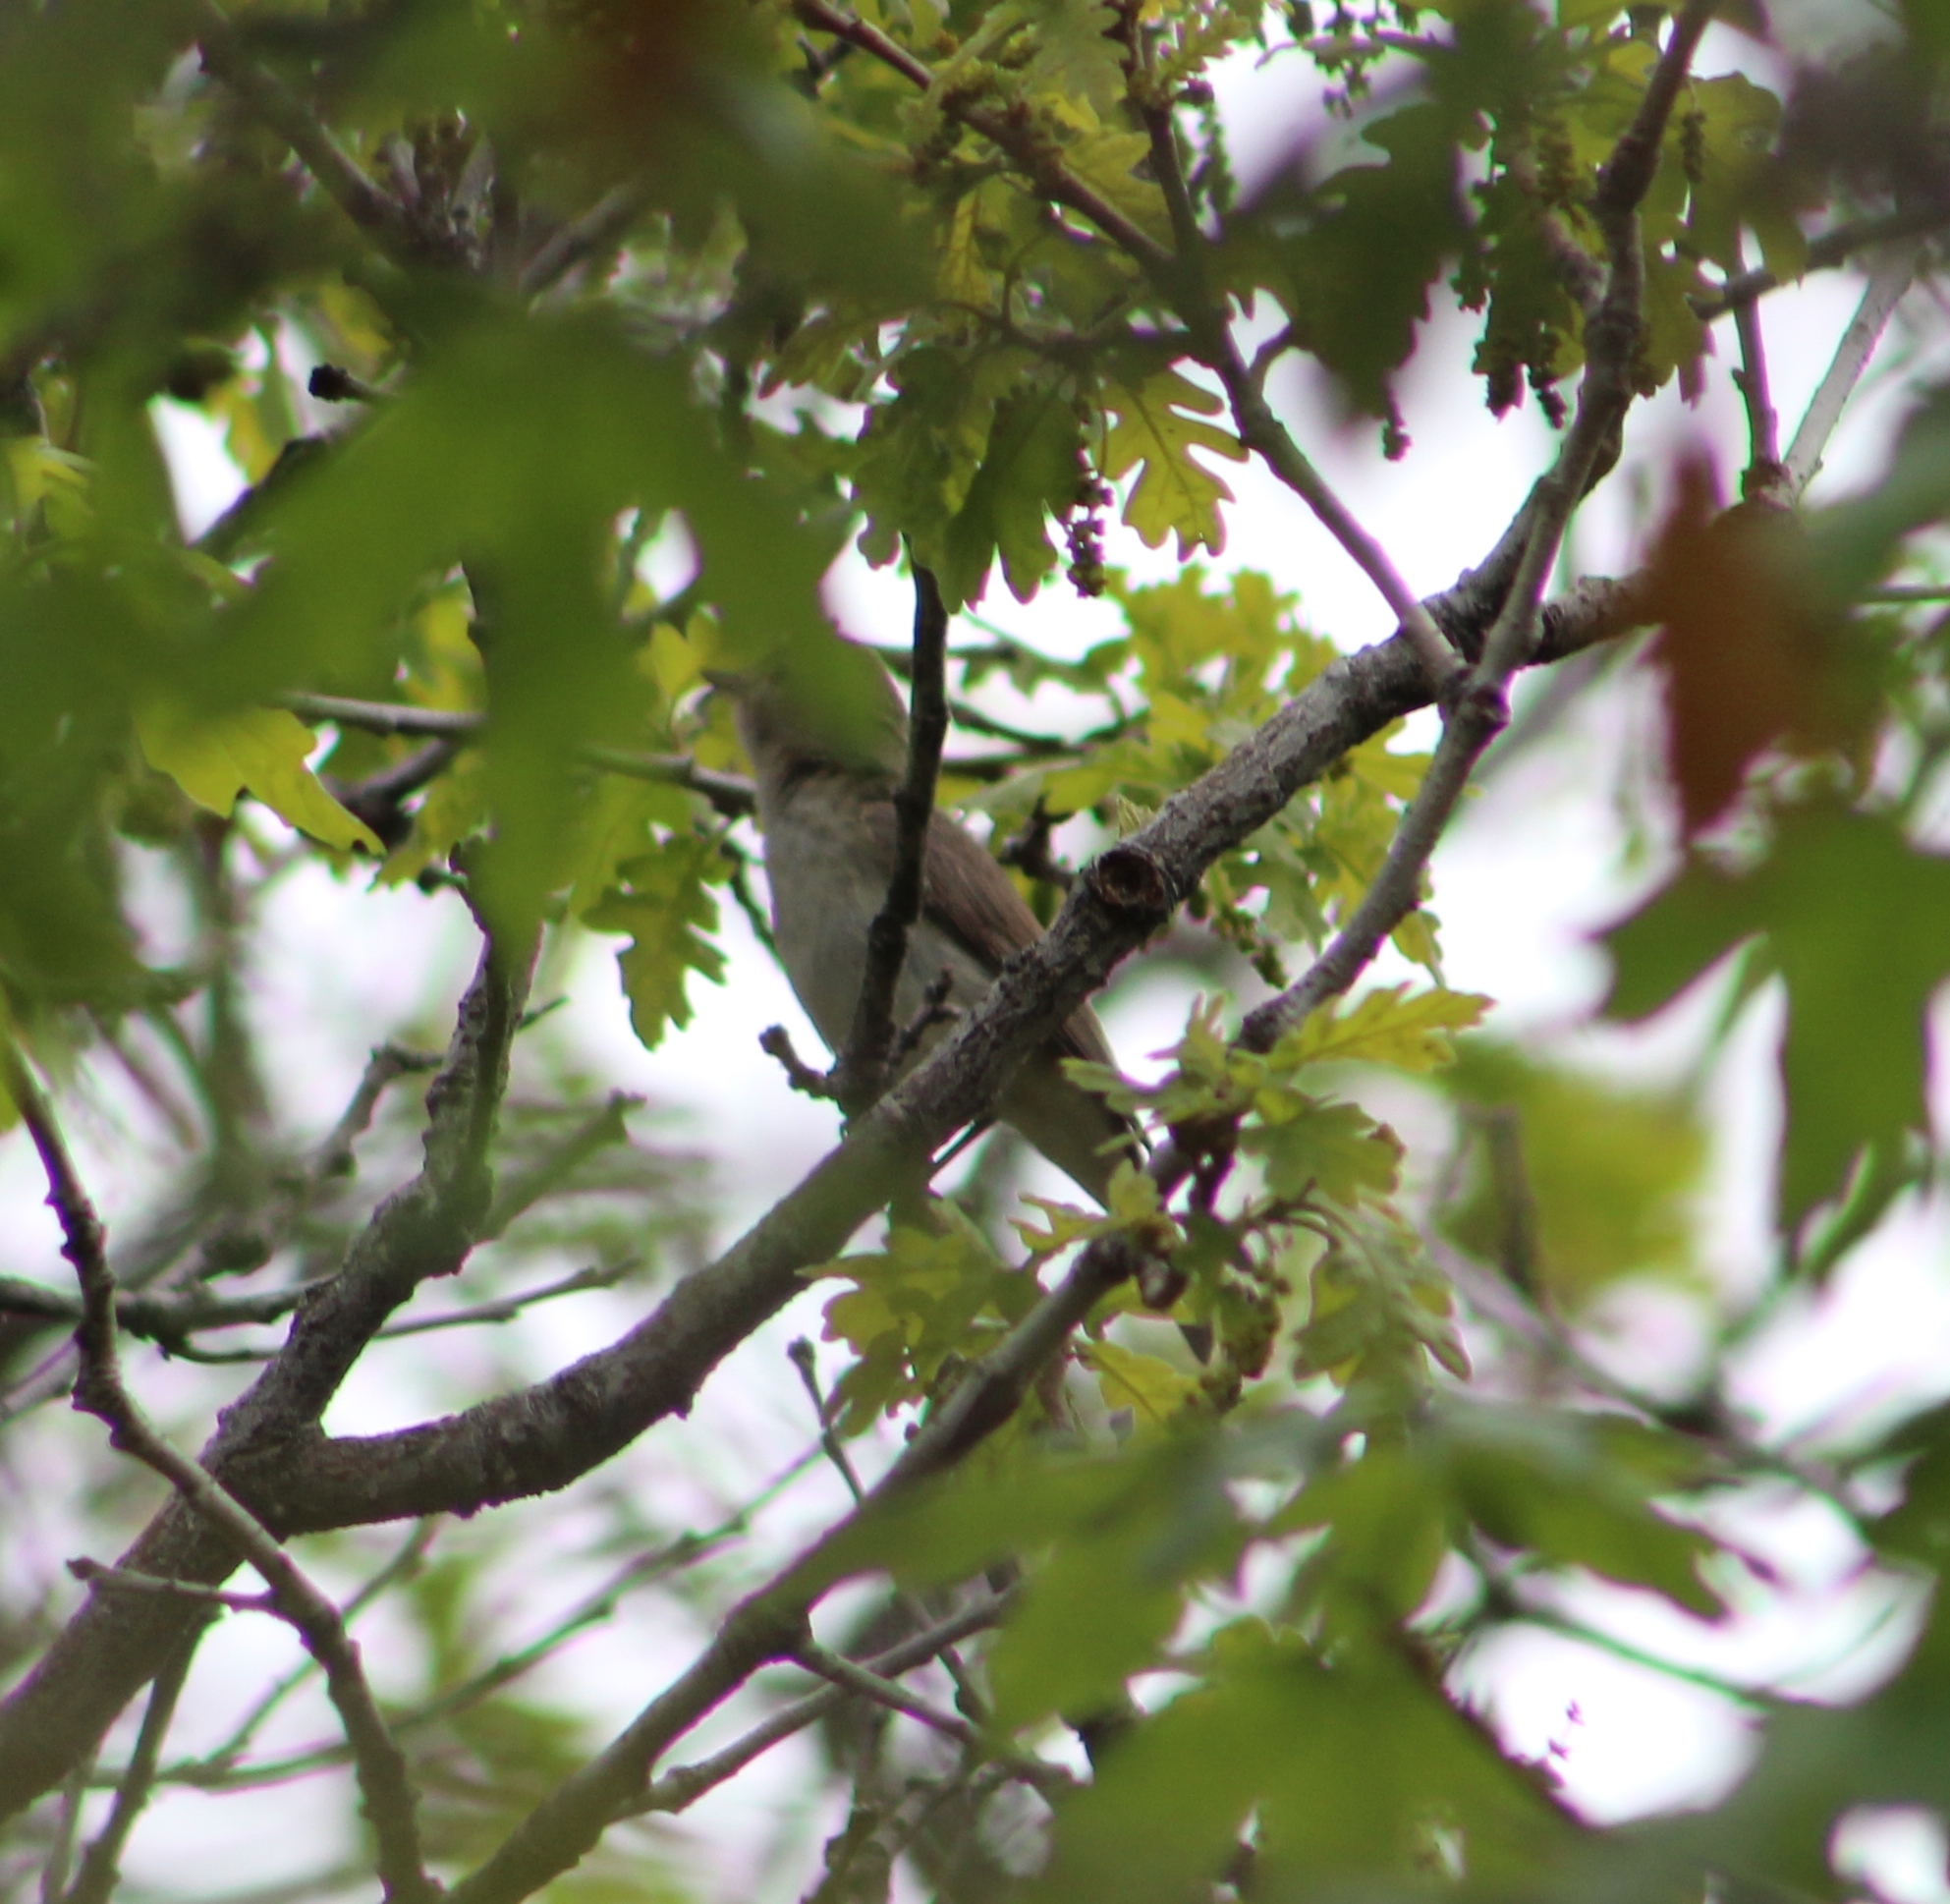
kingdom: Animalia
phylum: Chordata
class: Aves
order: Passeriformes
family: Vireonidae
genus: Vireo
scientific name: Vireo gilvus
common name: Warbling vireo
